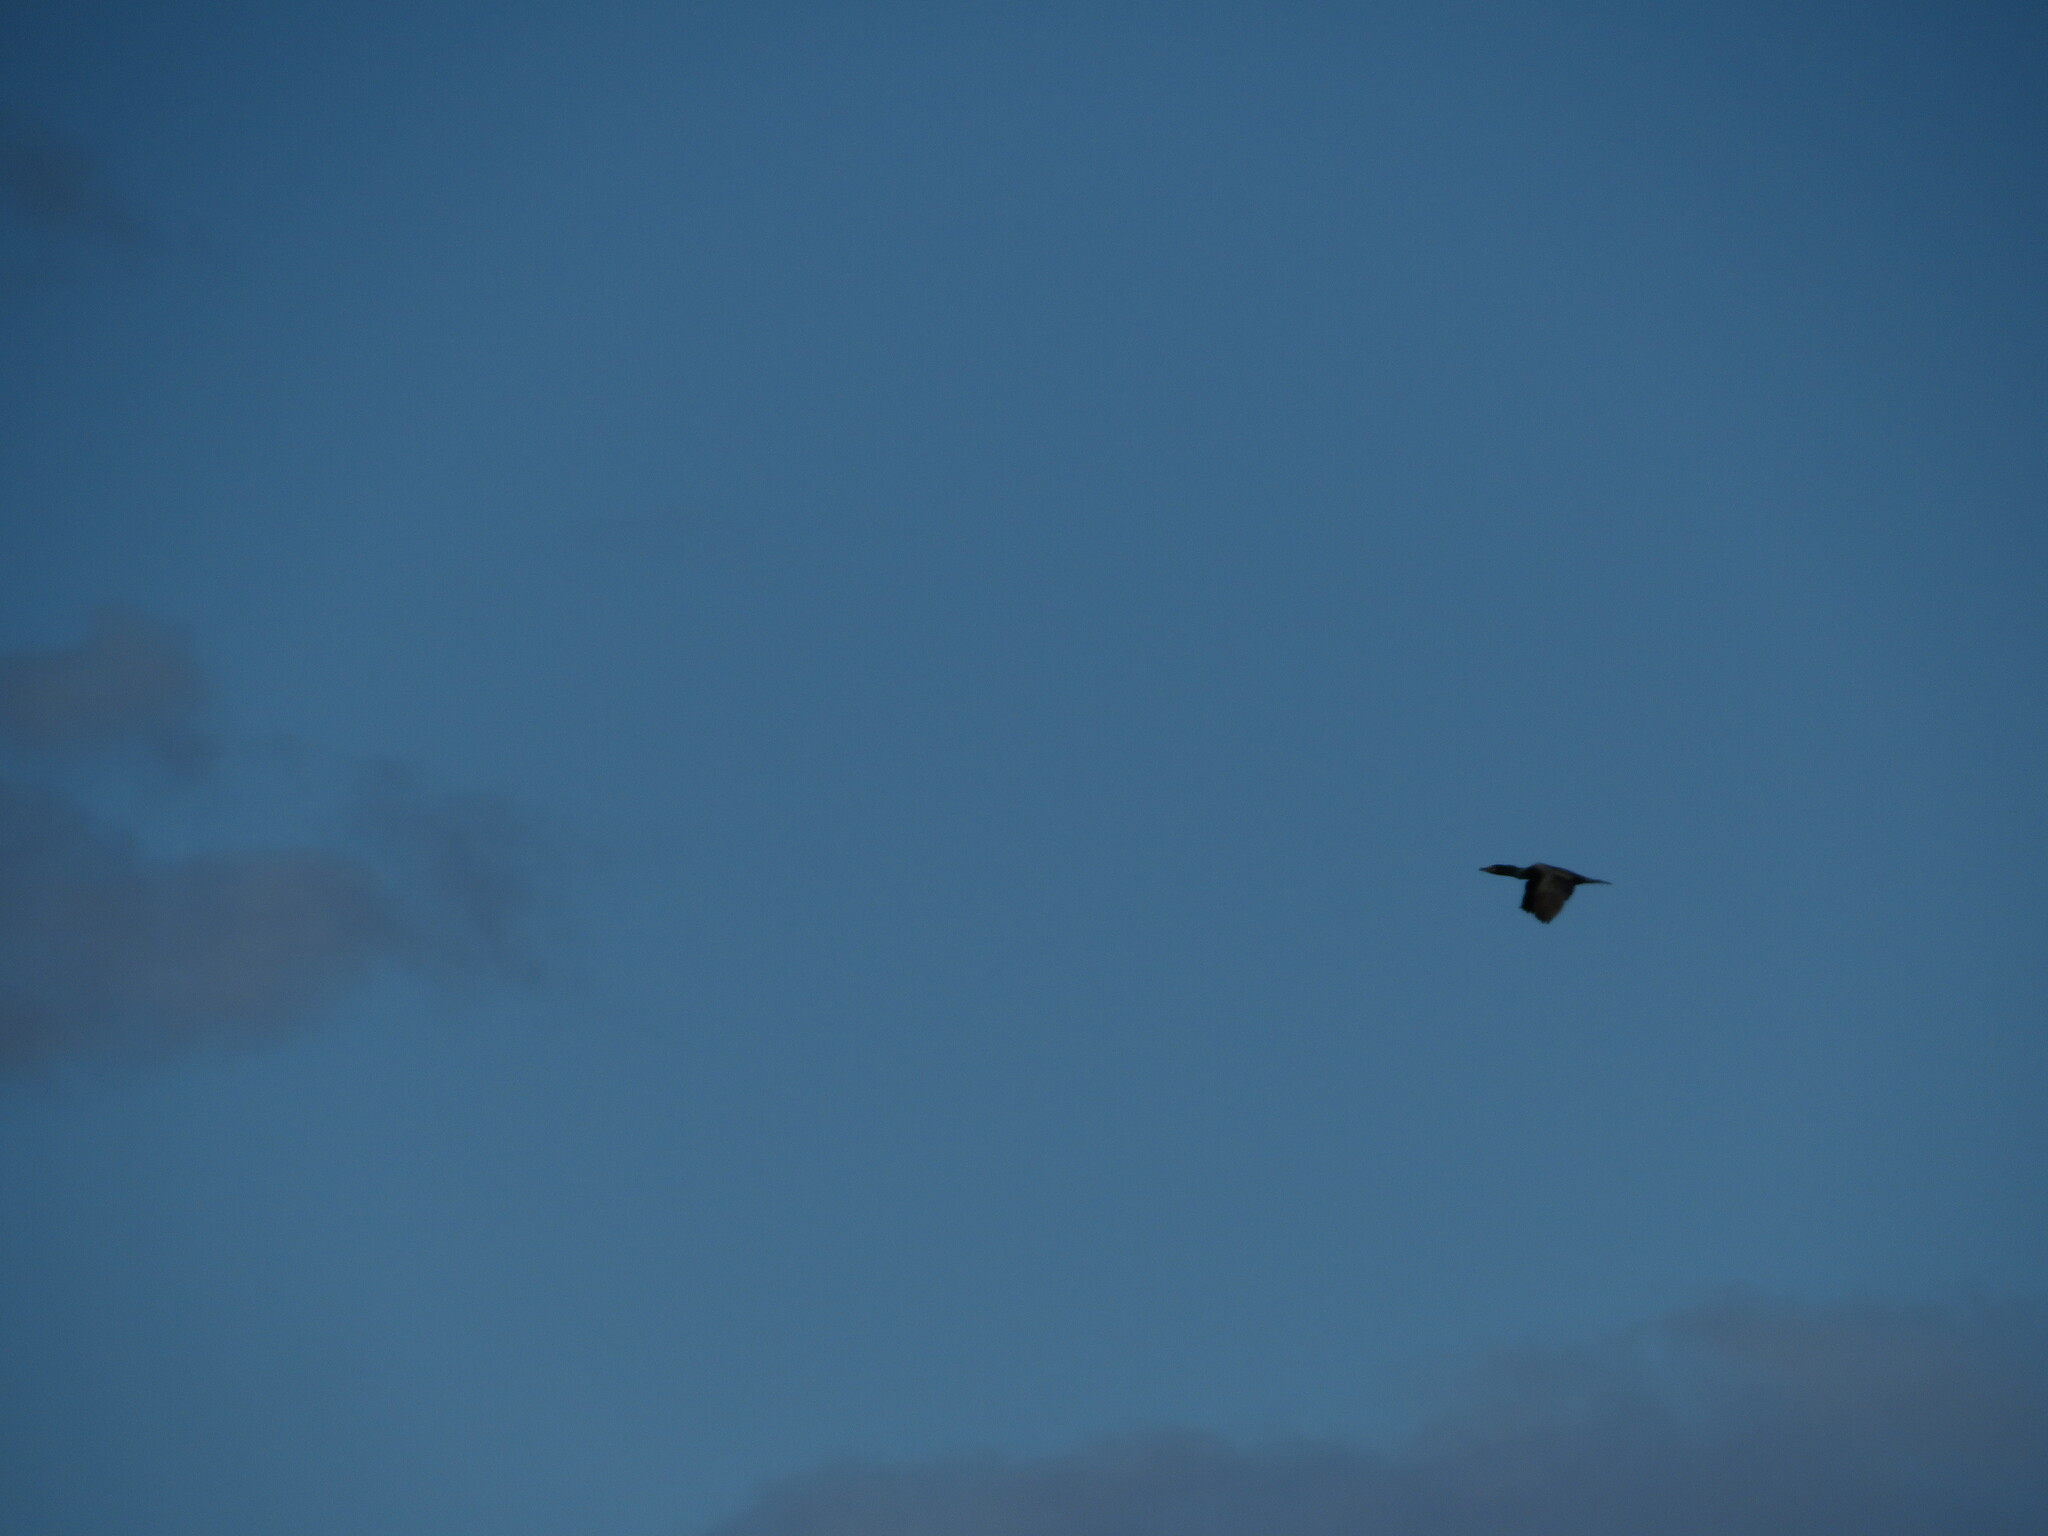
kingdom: Animalia
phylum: Chordata
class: Aves
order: Suliformes
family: Phalacrocoracidae
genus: Phalacrocorax
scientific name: Phalacrocorax auritus
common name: Double-crested cormorant
